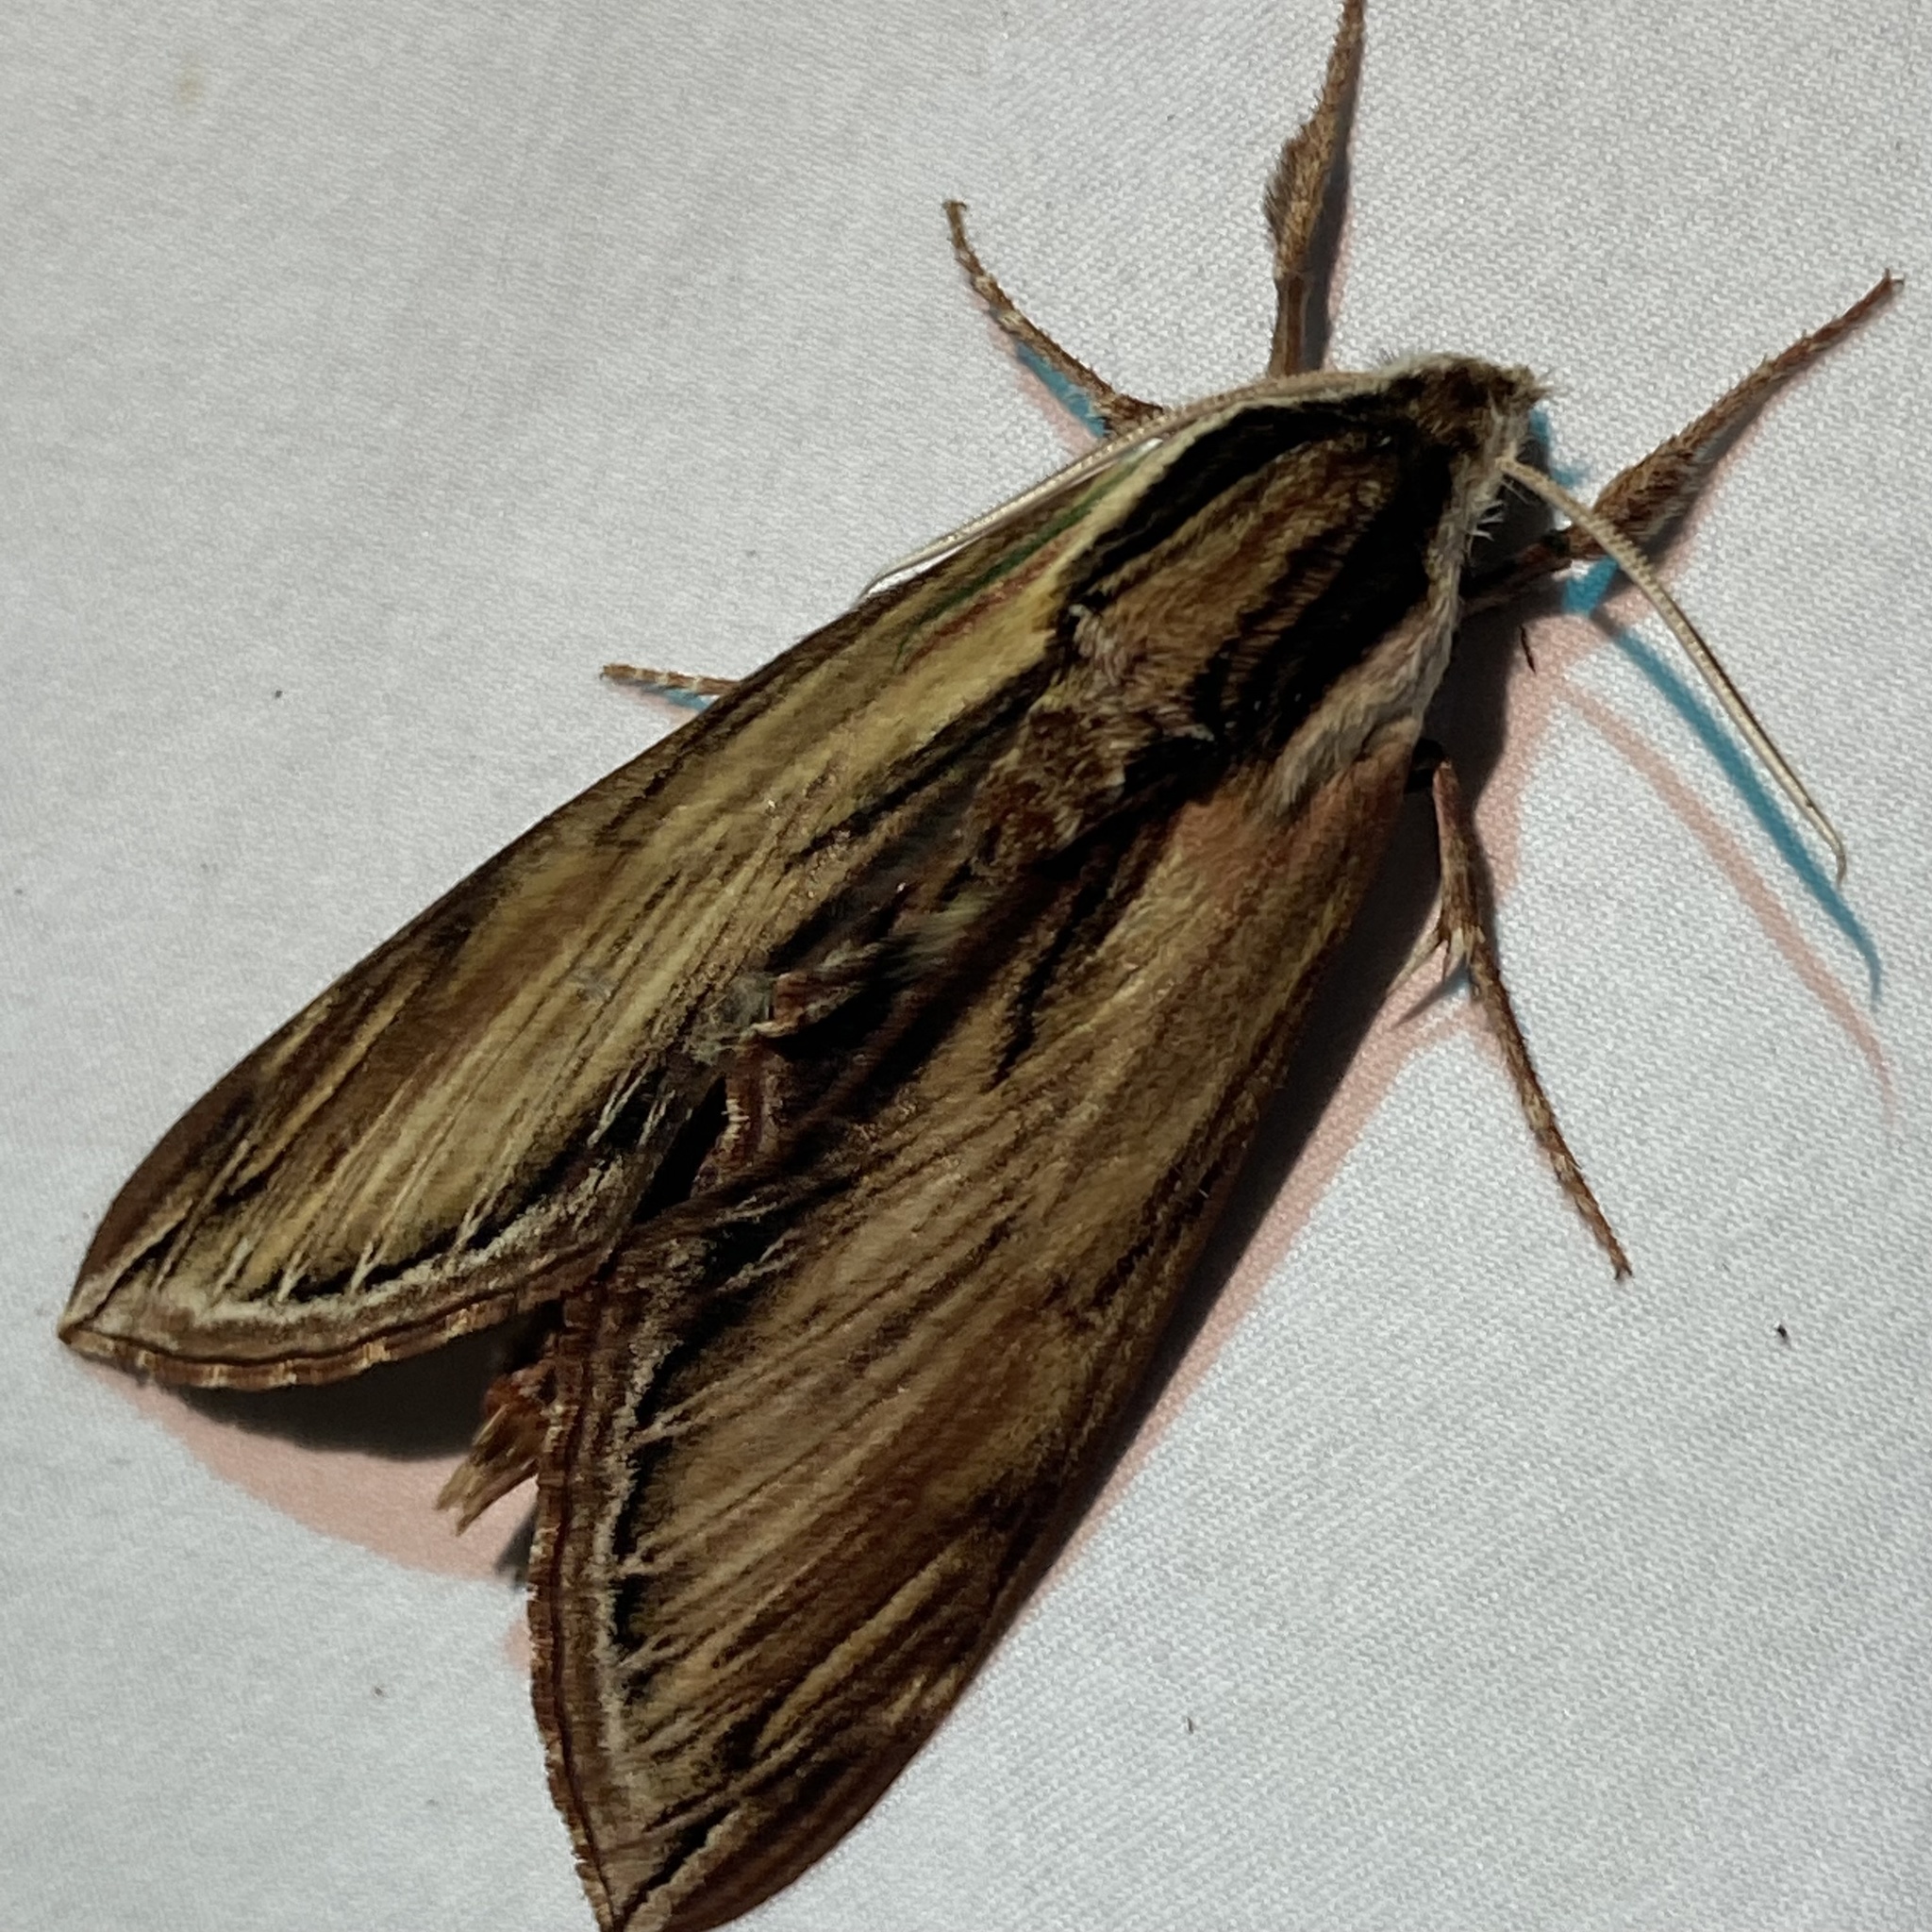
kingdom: Animalia
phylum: Arthropoda
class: Insecta
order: Lepidoptera
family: Sphingidae
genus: Sphinx
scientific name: Sphinx kalmiae
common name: Laurel sphinx
